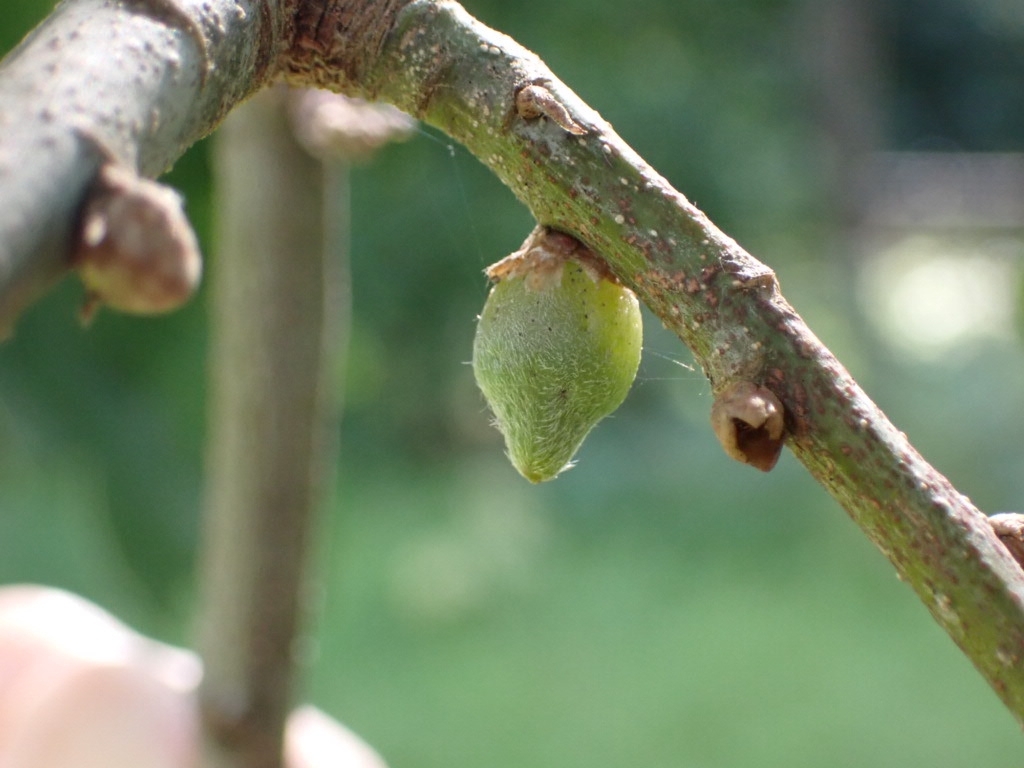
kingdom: Animalia
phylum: Arthropoda
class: Insecta
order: Hymenoptera
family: Cynipidae
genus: Andricus
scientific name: Andricus glandulae
